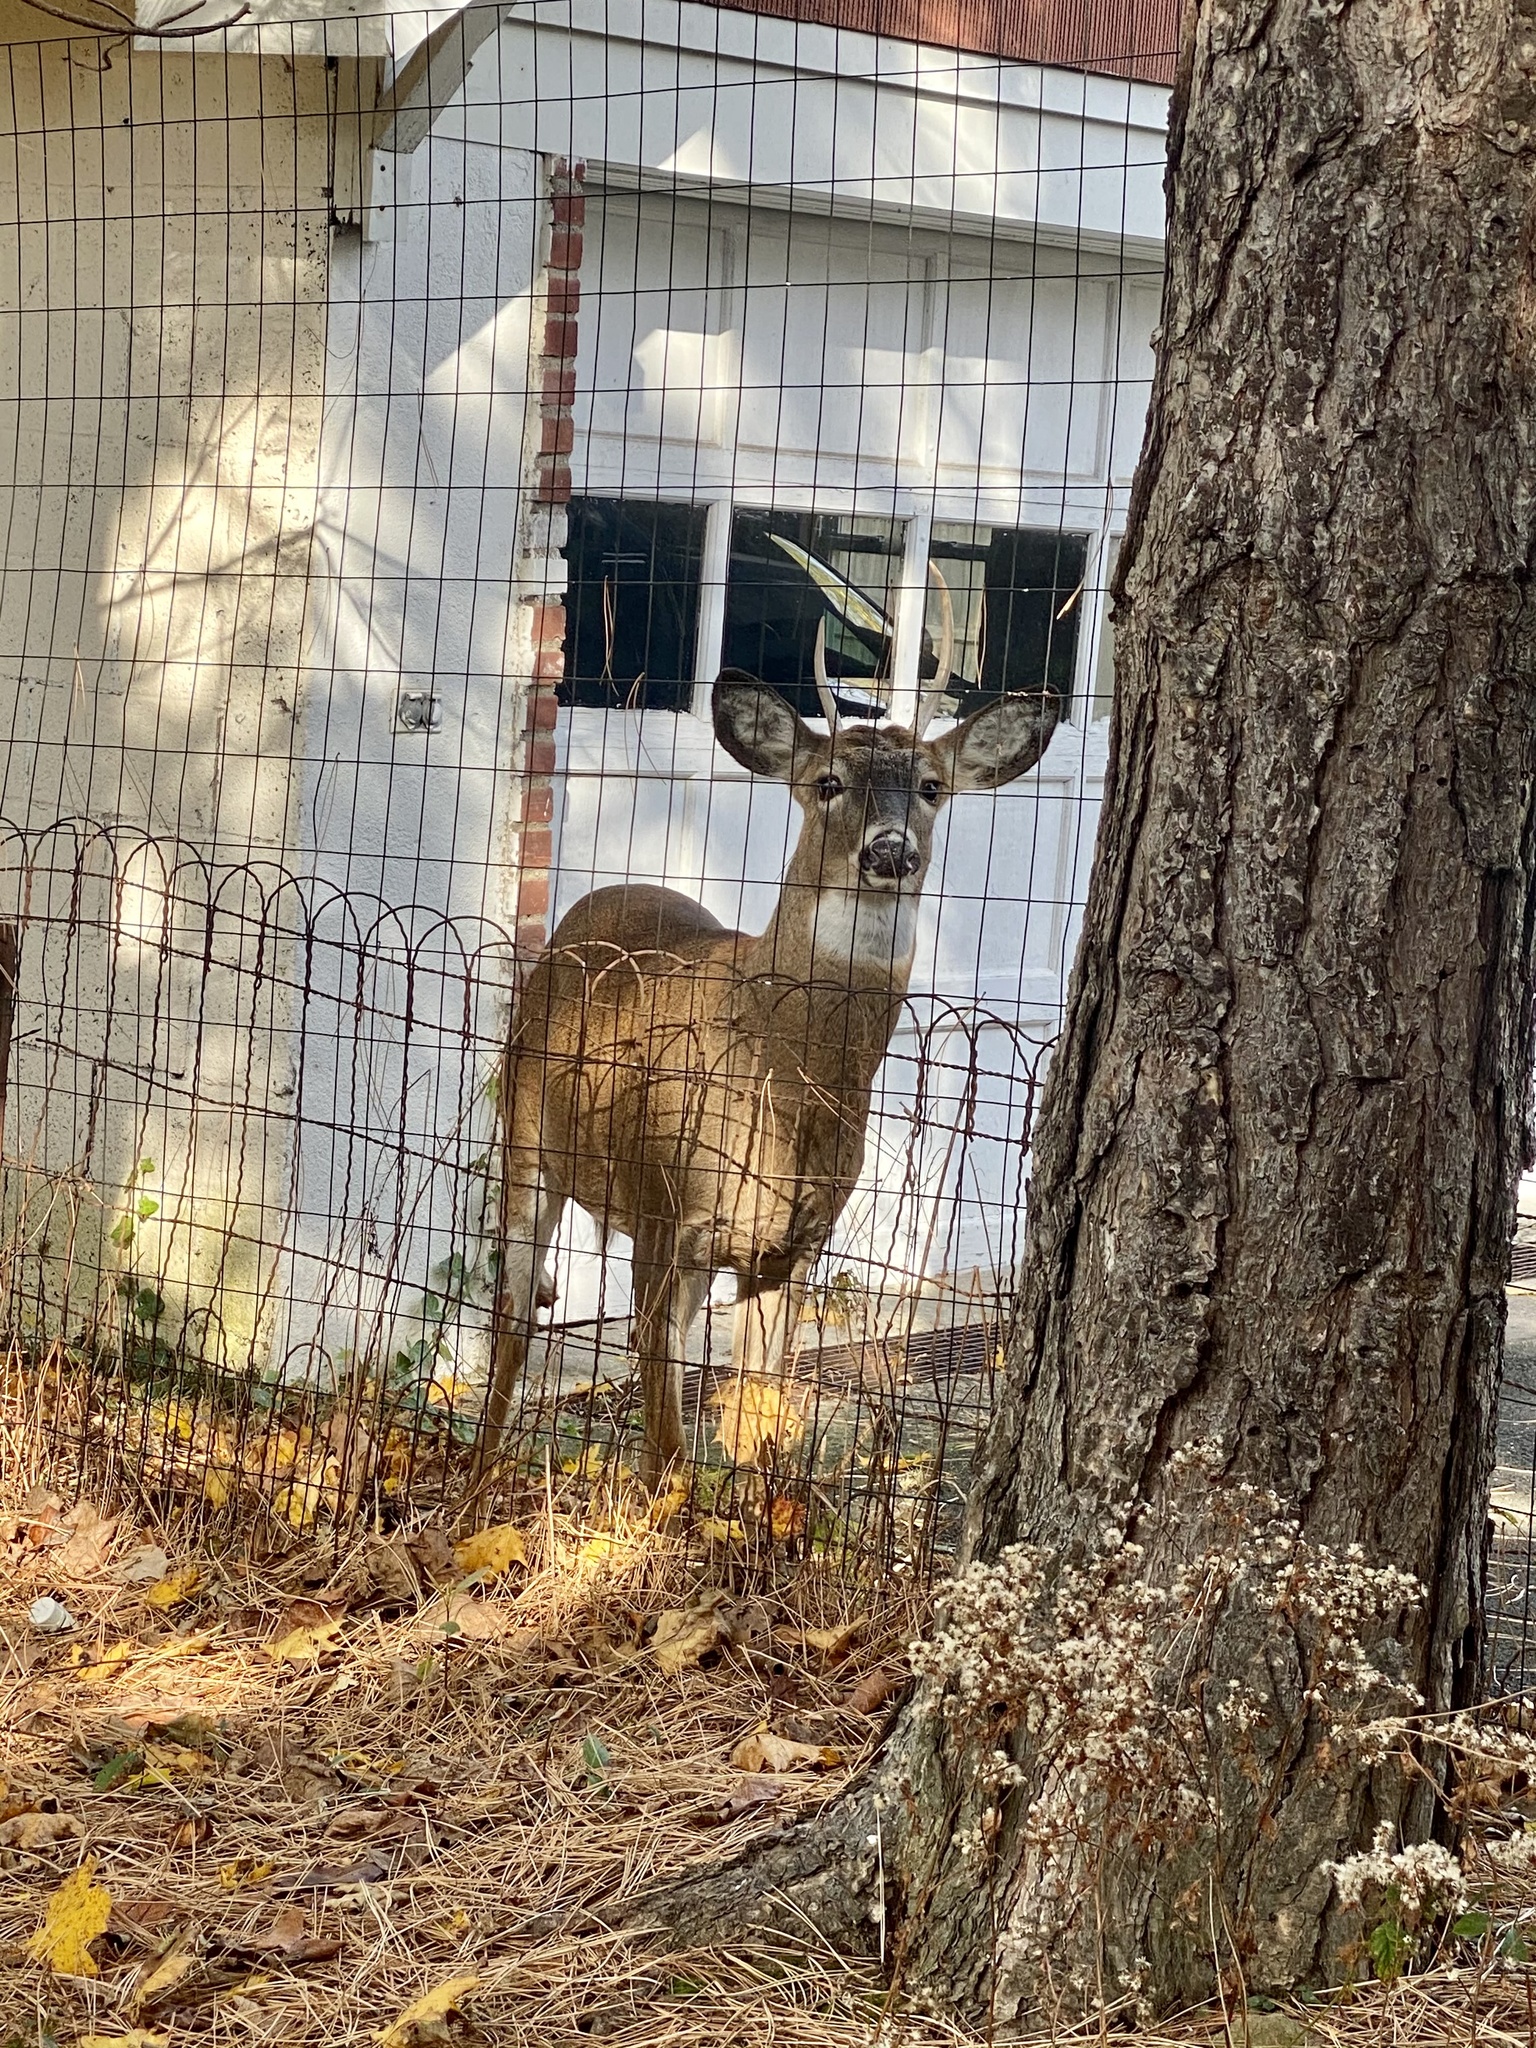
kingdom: Animalia
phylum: Chordata
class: Mammalia
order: Artiodactyla
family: Cervidae
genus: Odocoileus
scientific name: Odocoileus virginianus
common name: White-tailed deer
